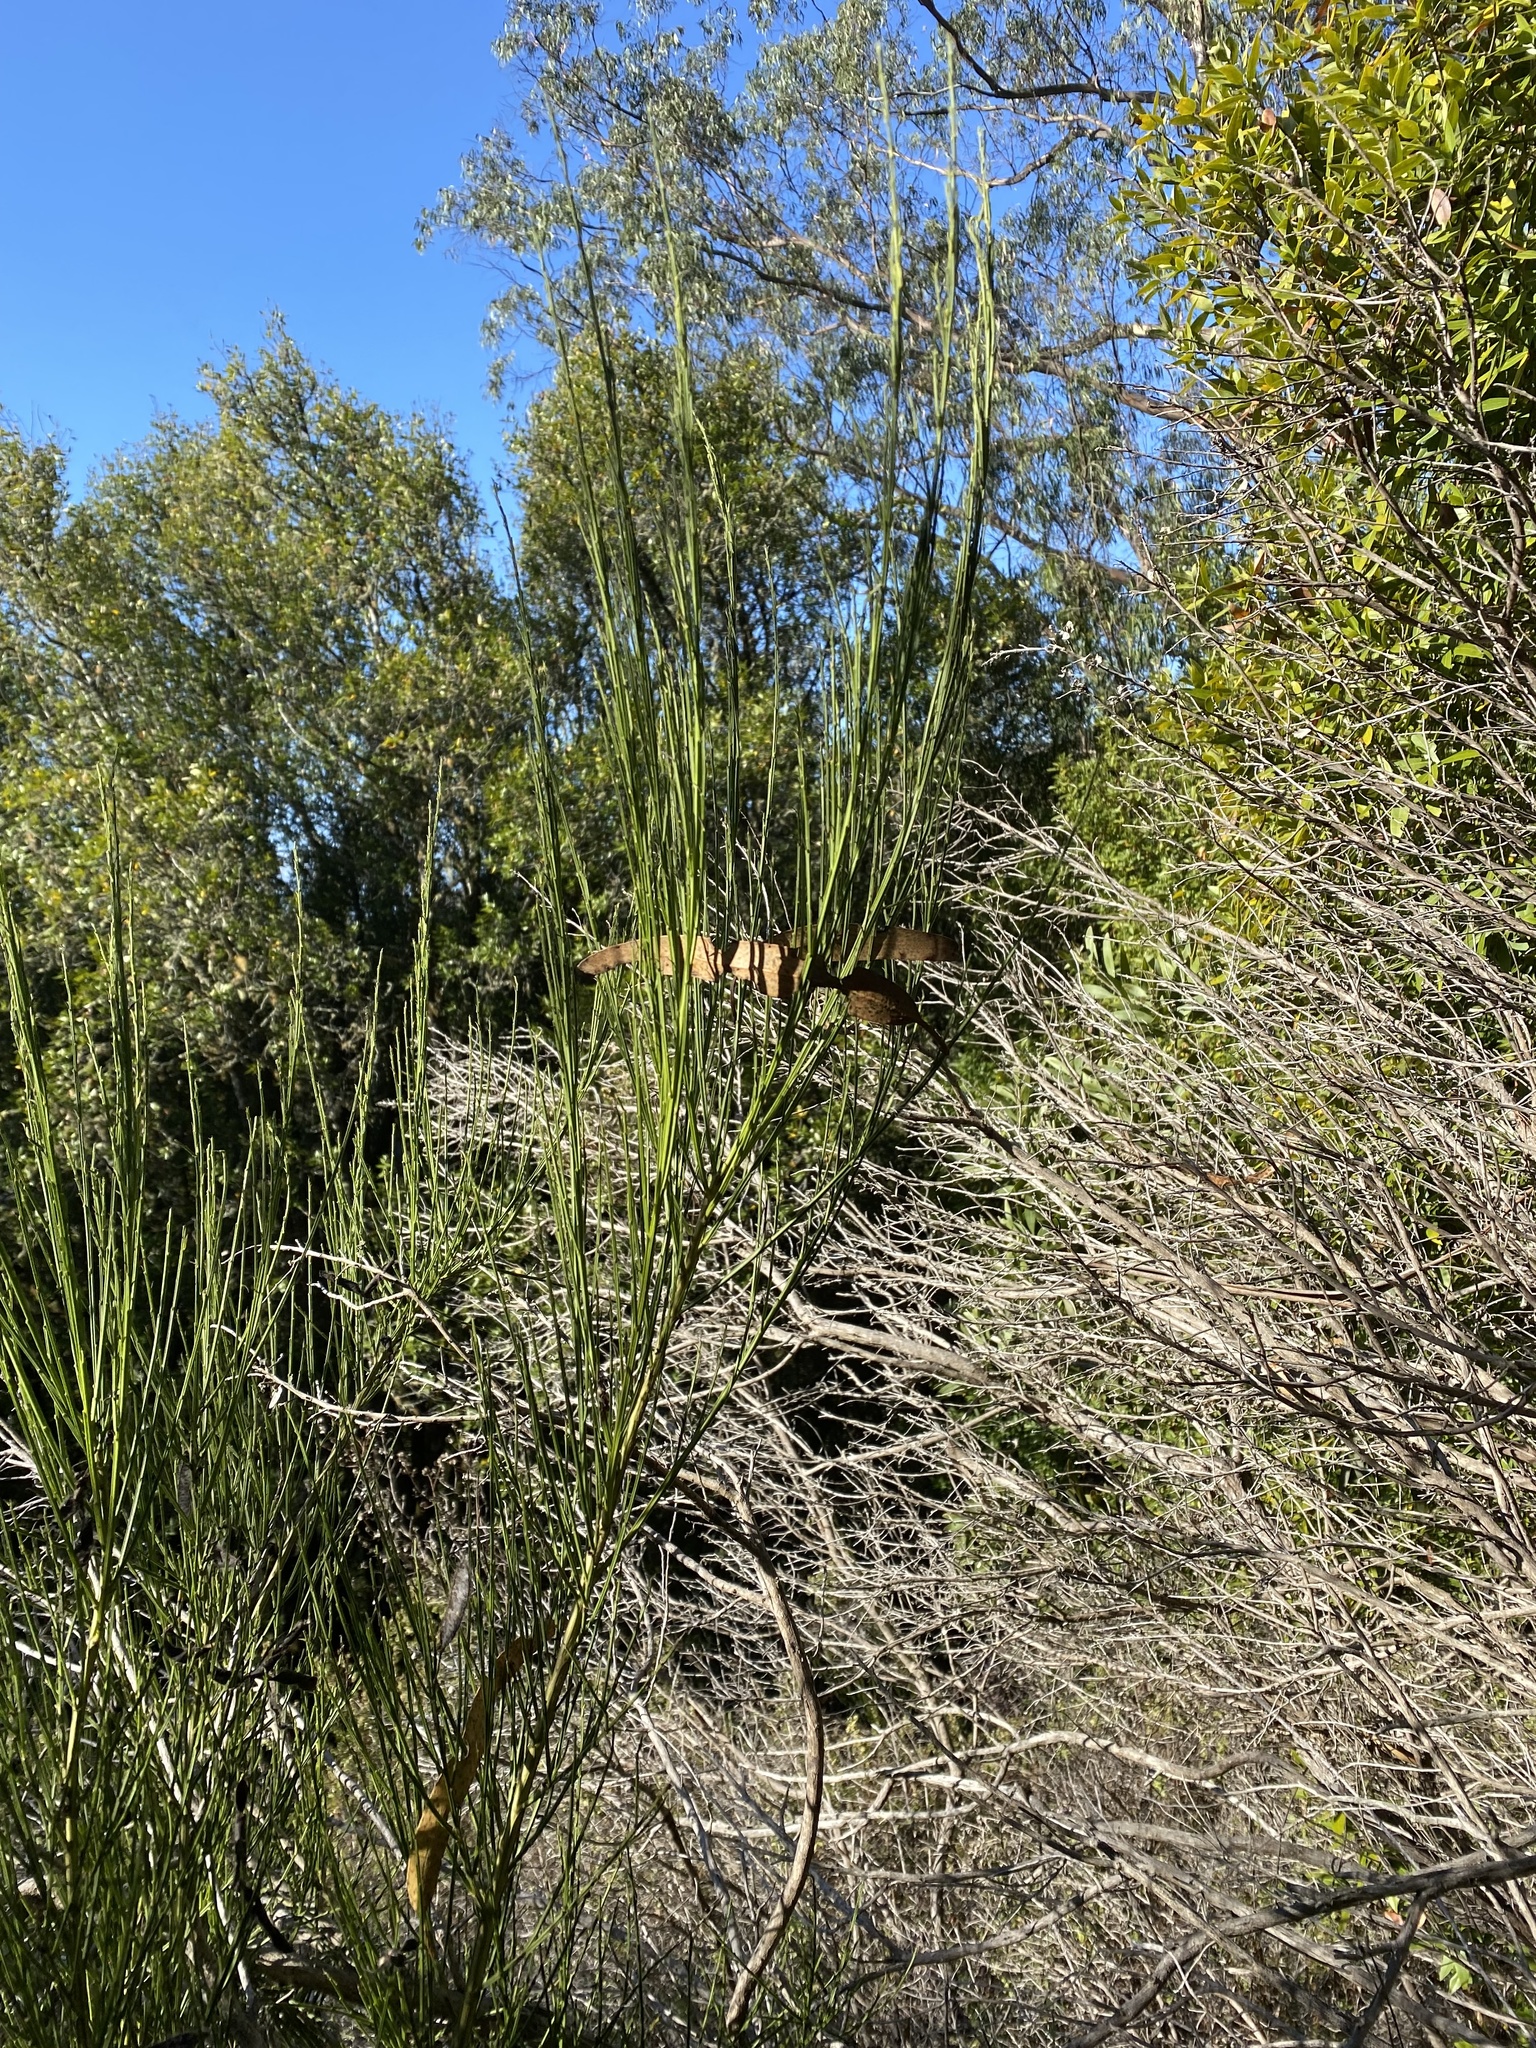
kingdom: Plantae
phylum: Tracheophyta
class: Magnoliopsida
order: Fabales
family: Fabaceae
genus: Cytisus
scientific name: Cytisus scoparius
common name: Scotch broom
